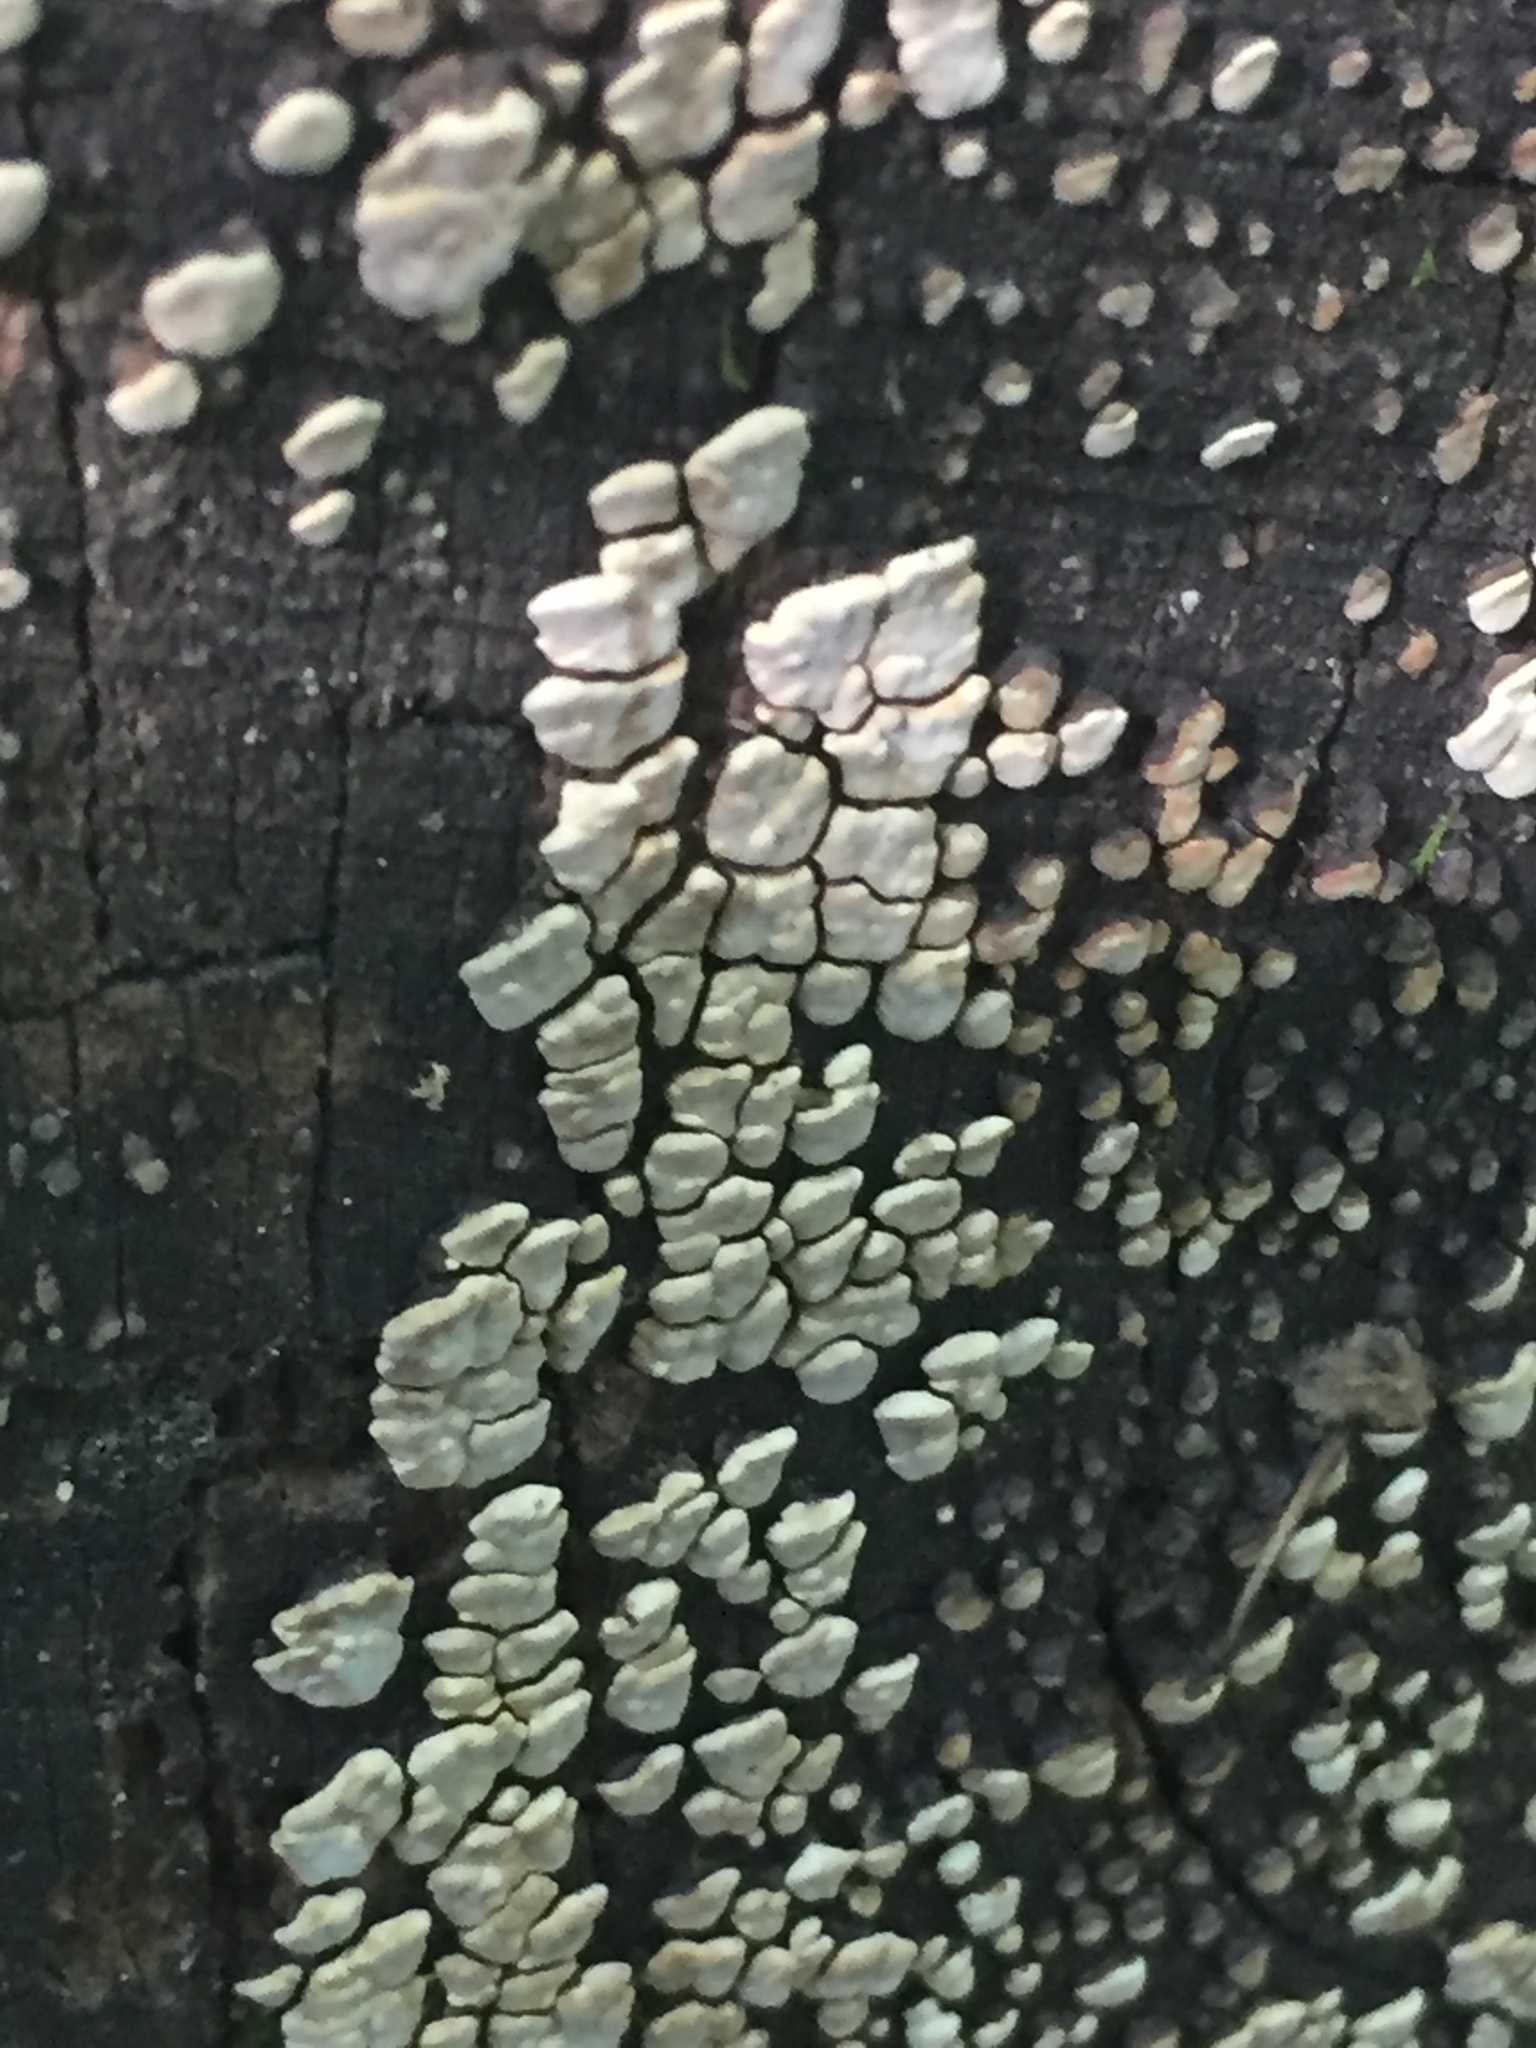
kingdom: Fungi
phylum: Basidiomycota
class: Agaricomycetes
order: Russulales
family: Stereaceae
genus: Xylobolus
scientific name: Xylobolus frustulatus
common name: Ceramic parchment
